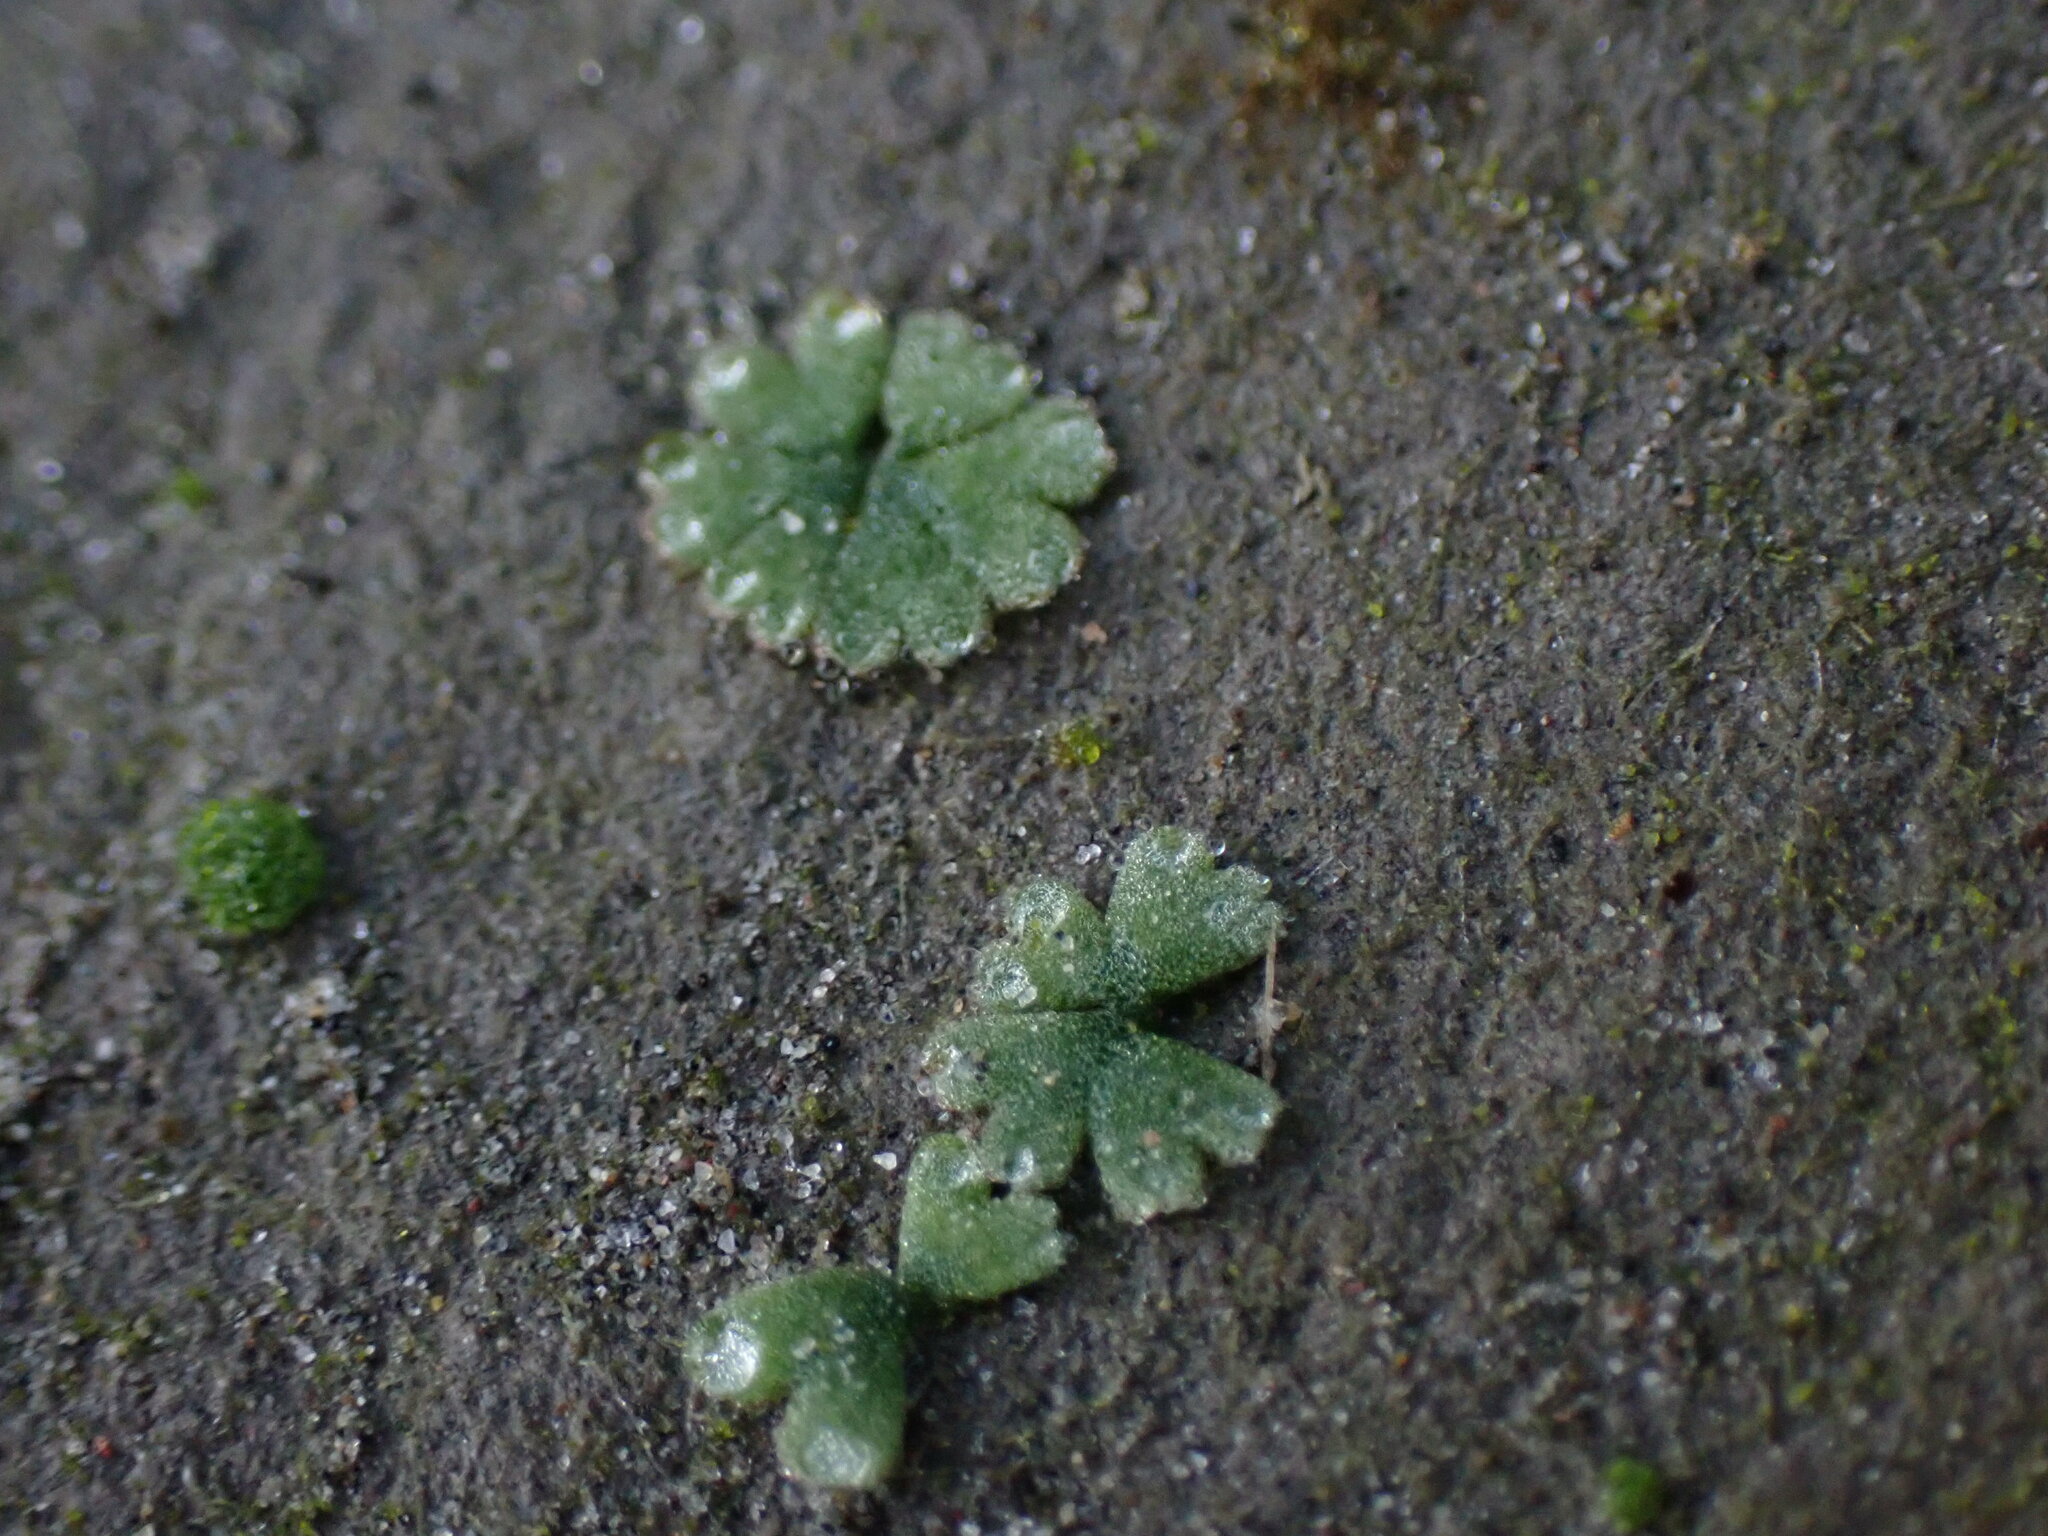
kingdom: Plantae
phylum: Marchantiophyta
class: Marchantiopsida
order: Marchantiales
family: Ricciaceae
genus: Riccia
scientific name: Riccia frostii
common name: Frost s crystalwort
